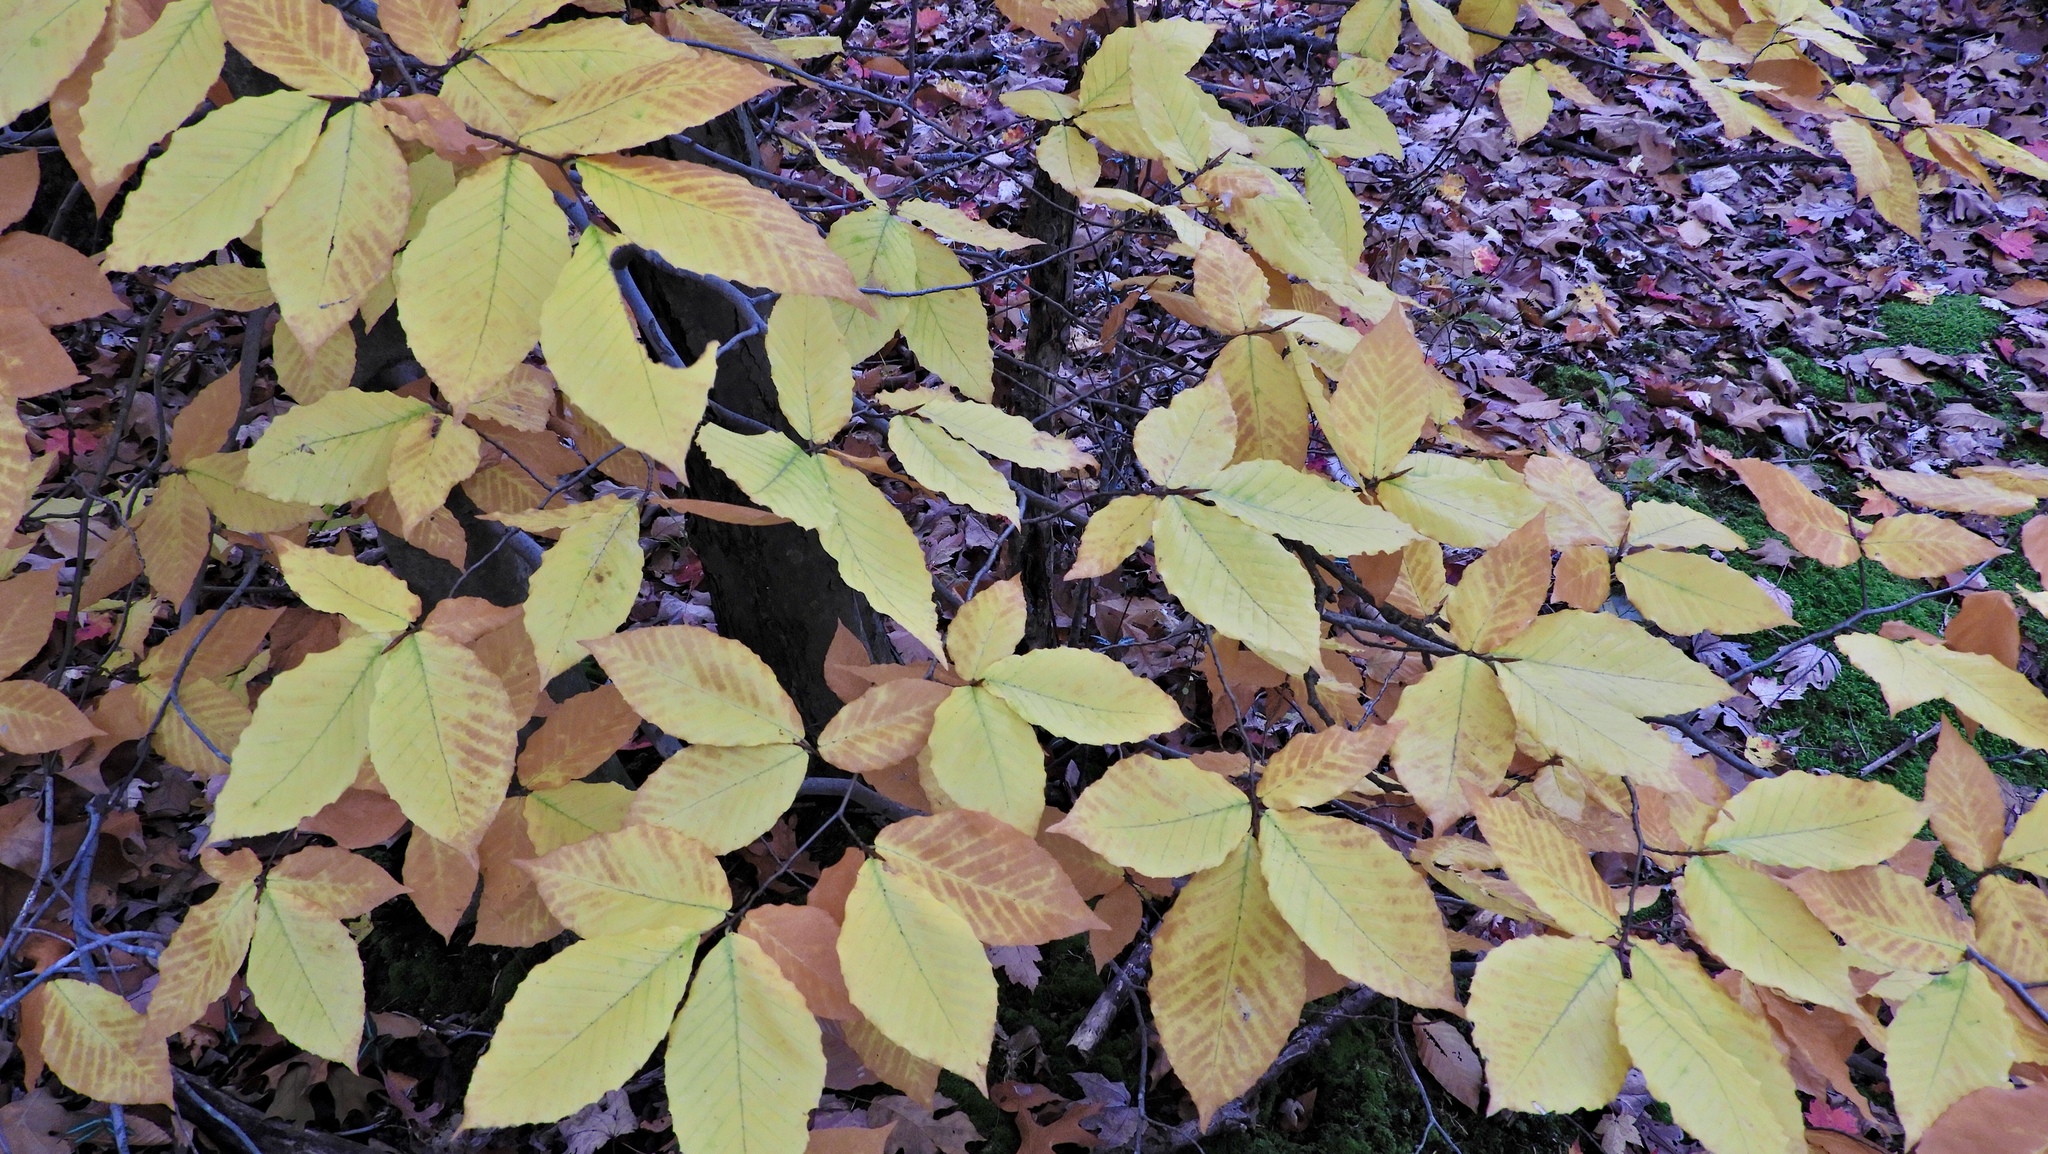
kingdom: Plantae
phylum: Tracheophyta
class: Magnoliopsida
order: Fagales
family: Fagaceae
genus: Fagus
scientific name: Fagus grandifolia
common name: American beech
